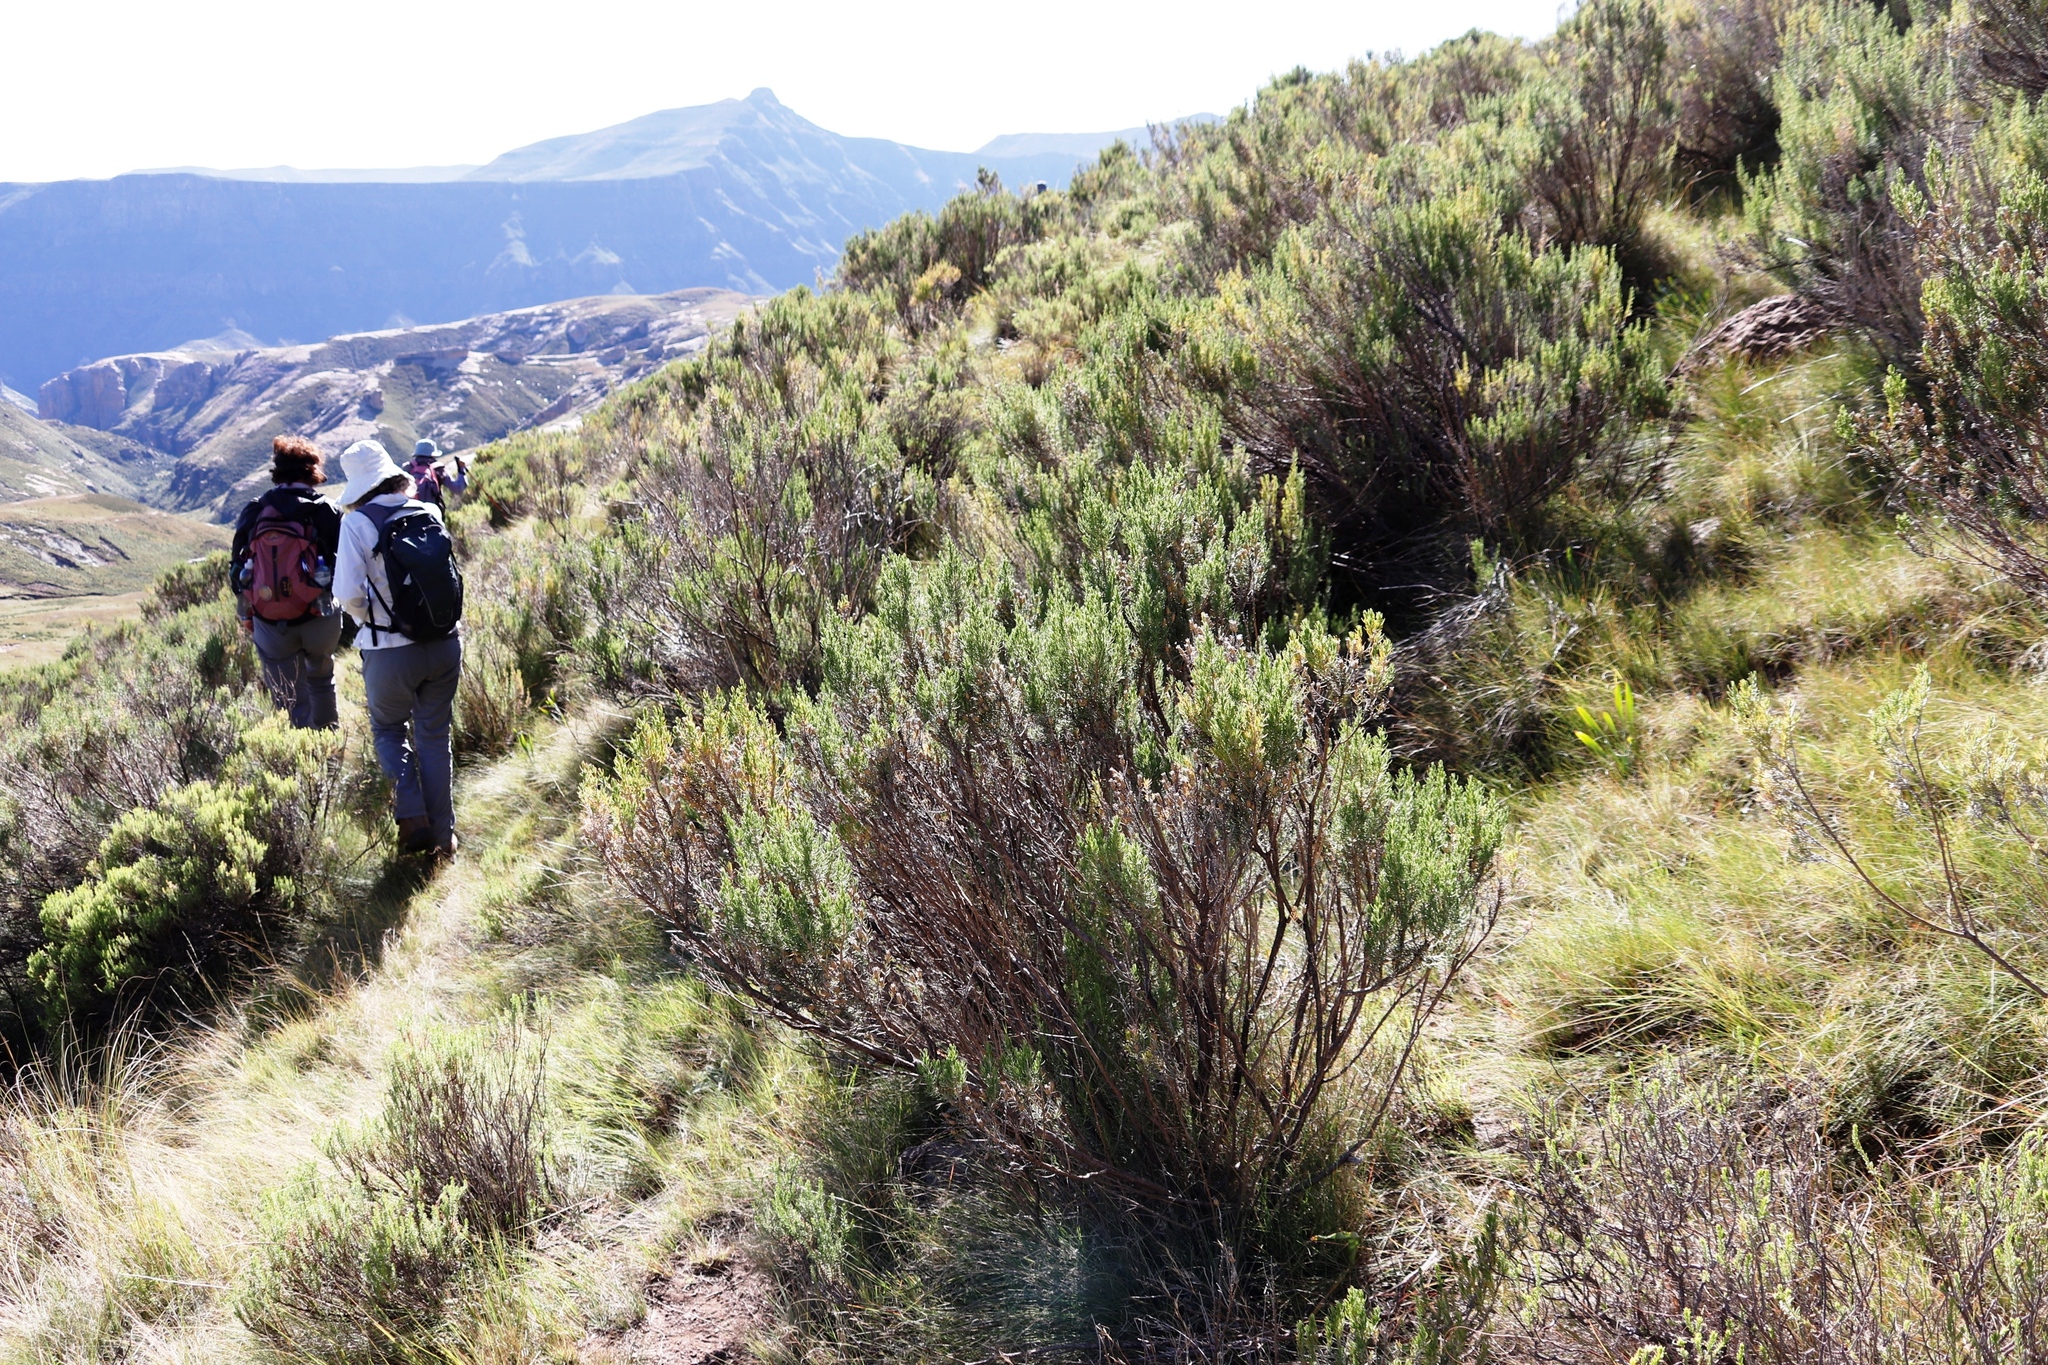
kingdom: Plantae
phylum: Tracheophyta
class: Magnoliopsida
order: Asterales
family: Asteraceae
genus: Dicerothamnus
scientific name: Dicerothamnus rhinocerotis
